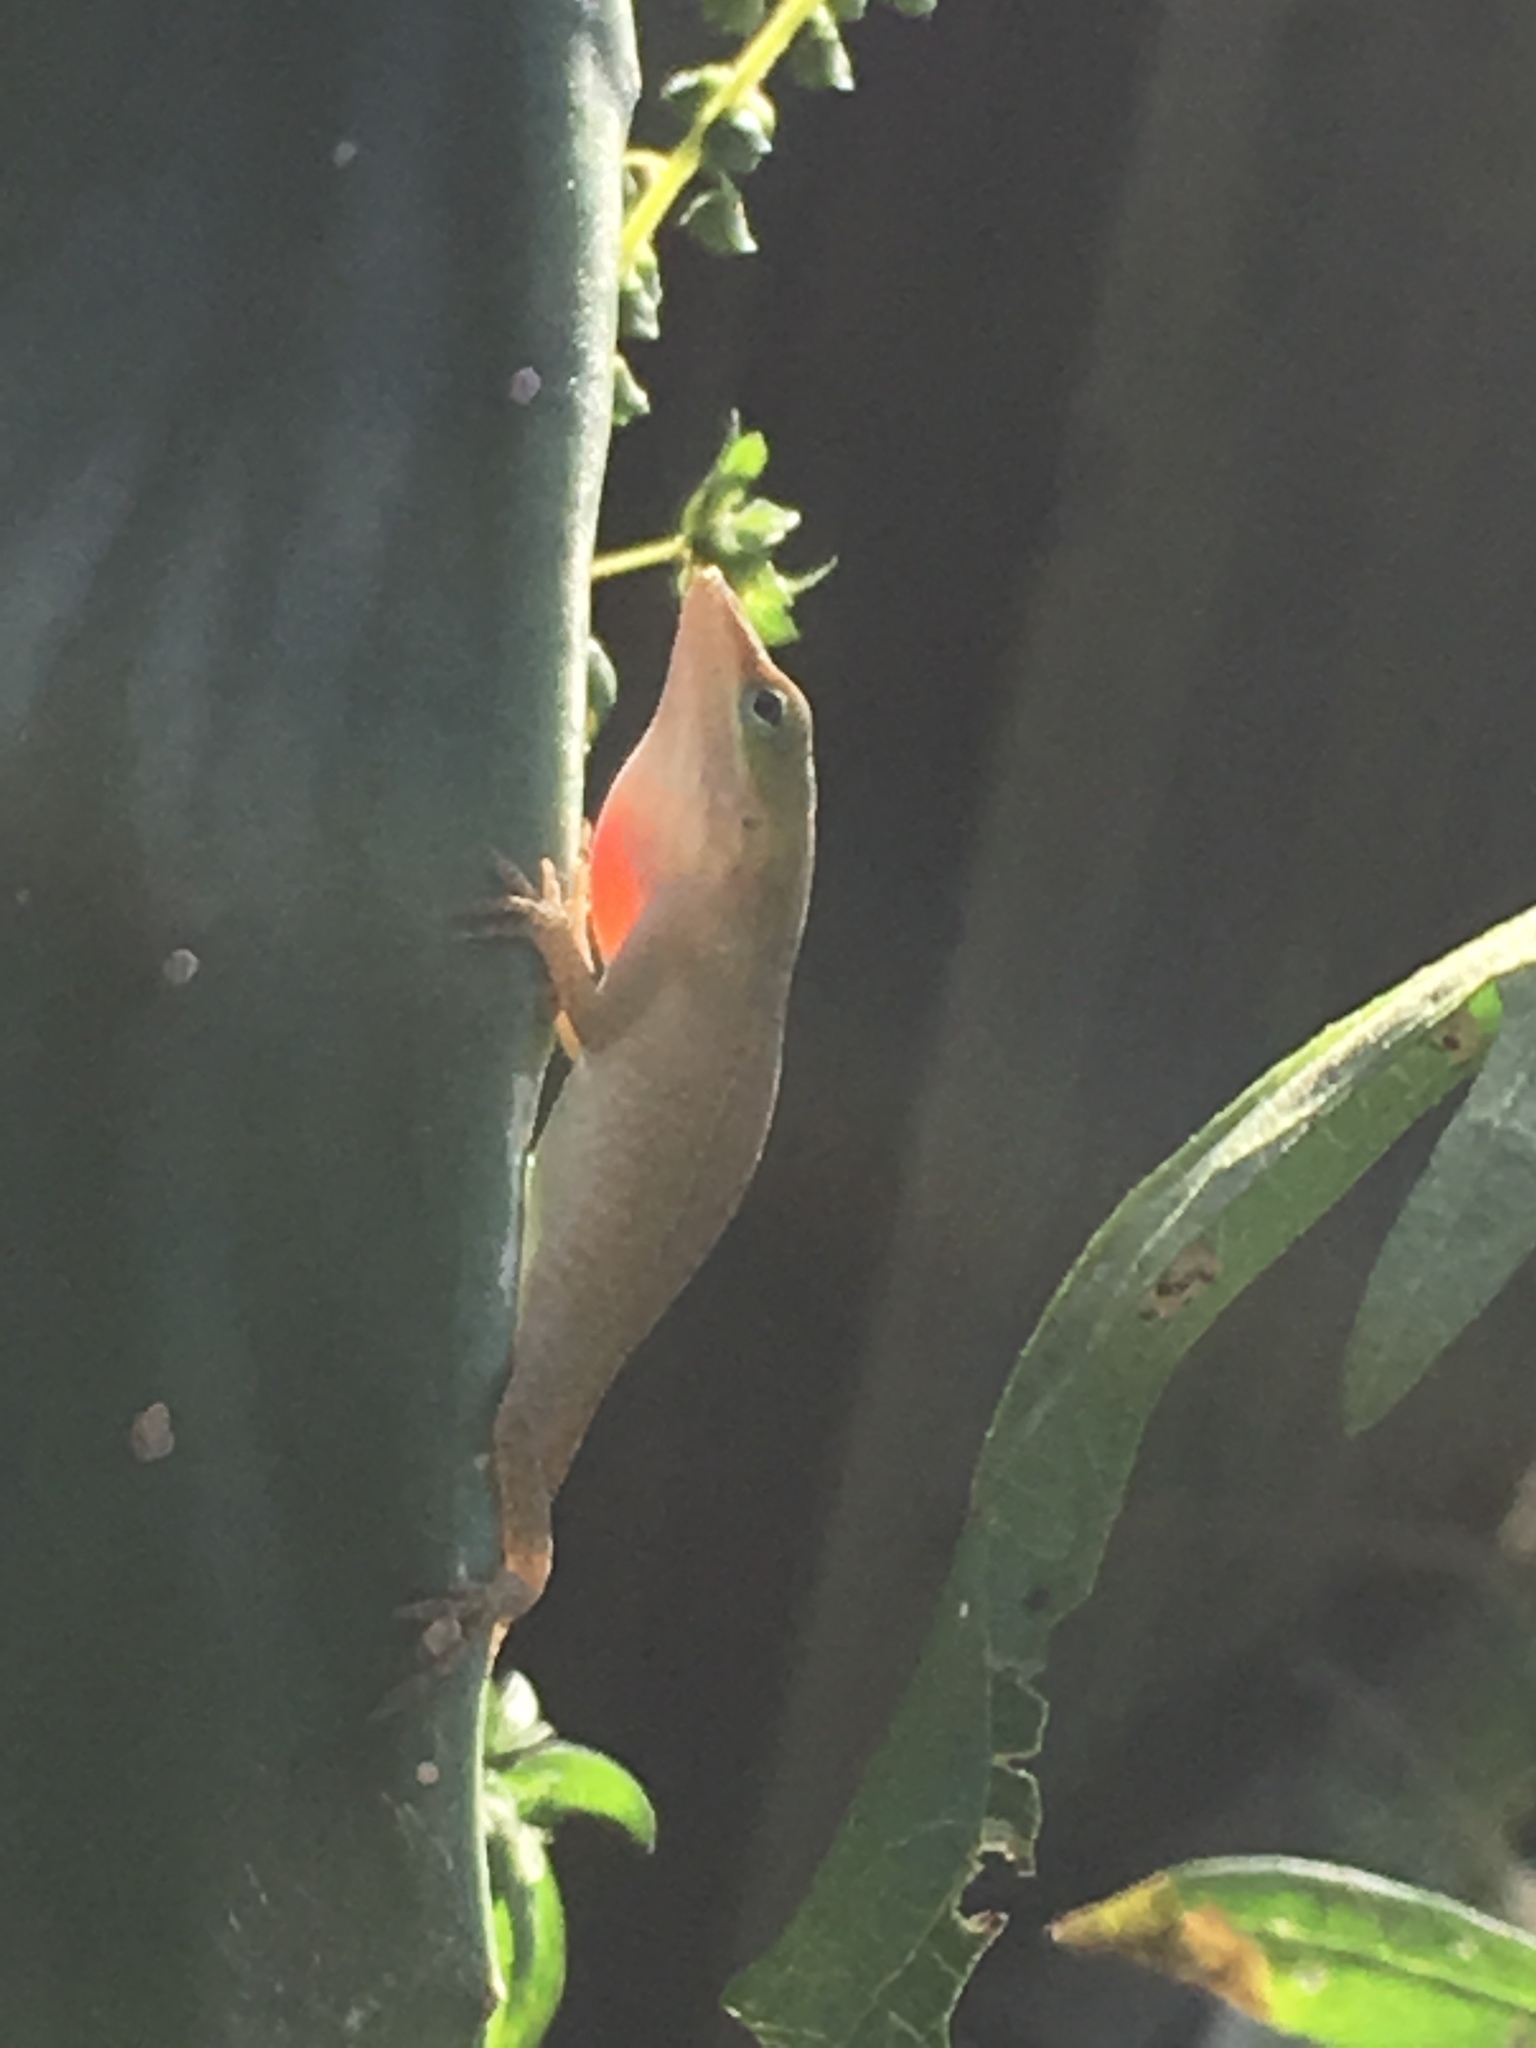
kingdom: Animalia
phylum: Chordata
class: Squamata
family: Dactyloidae
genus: Anolis
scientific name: Anolis carolinensis
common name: Green anole
